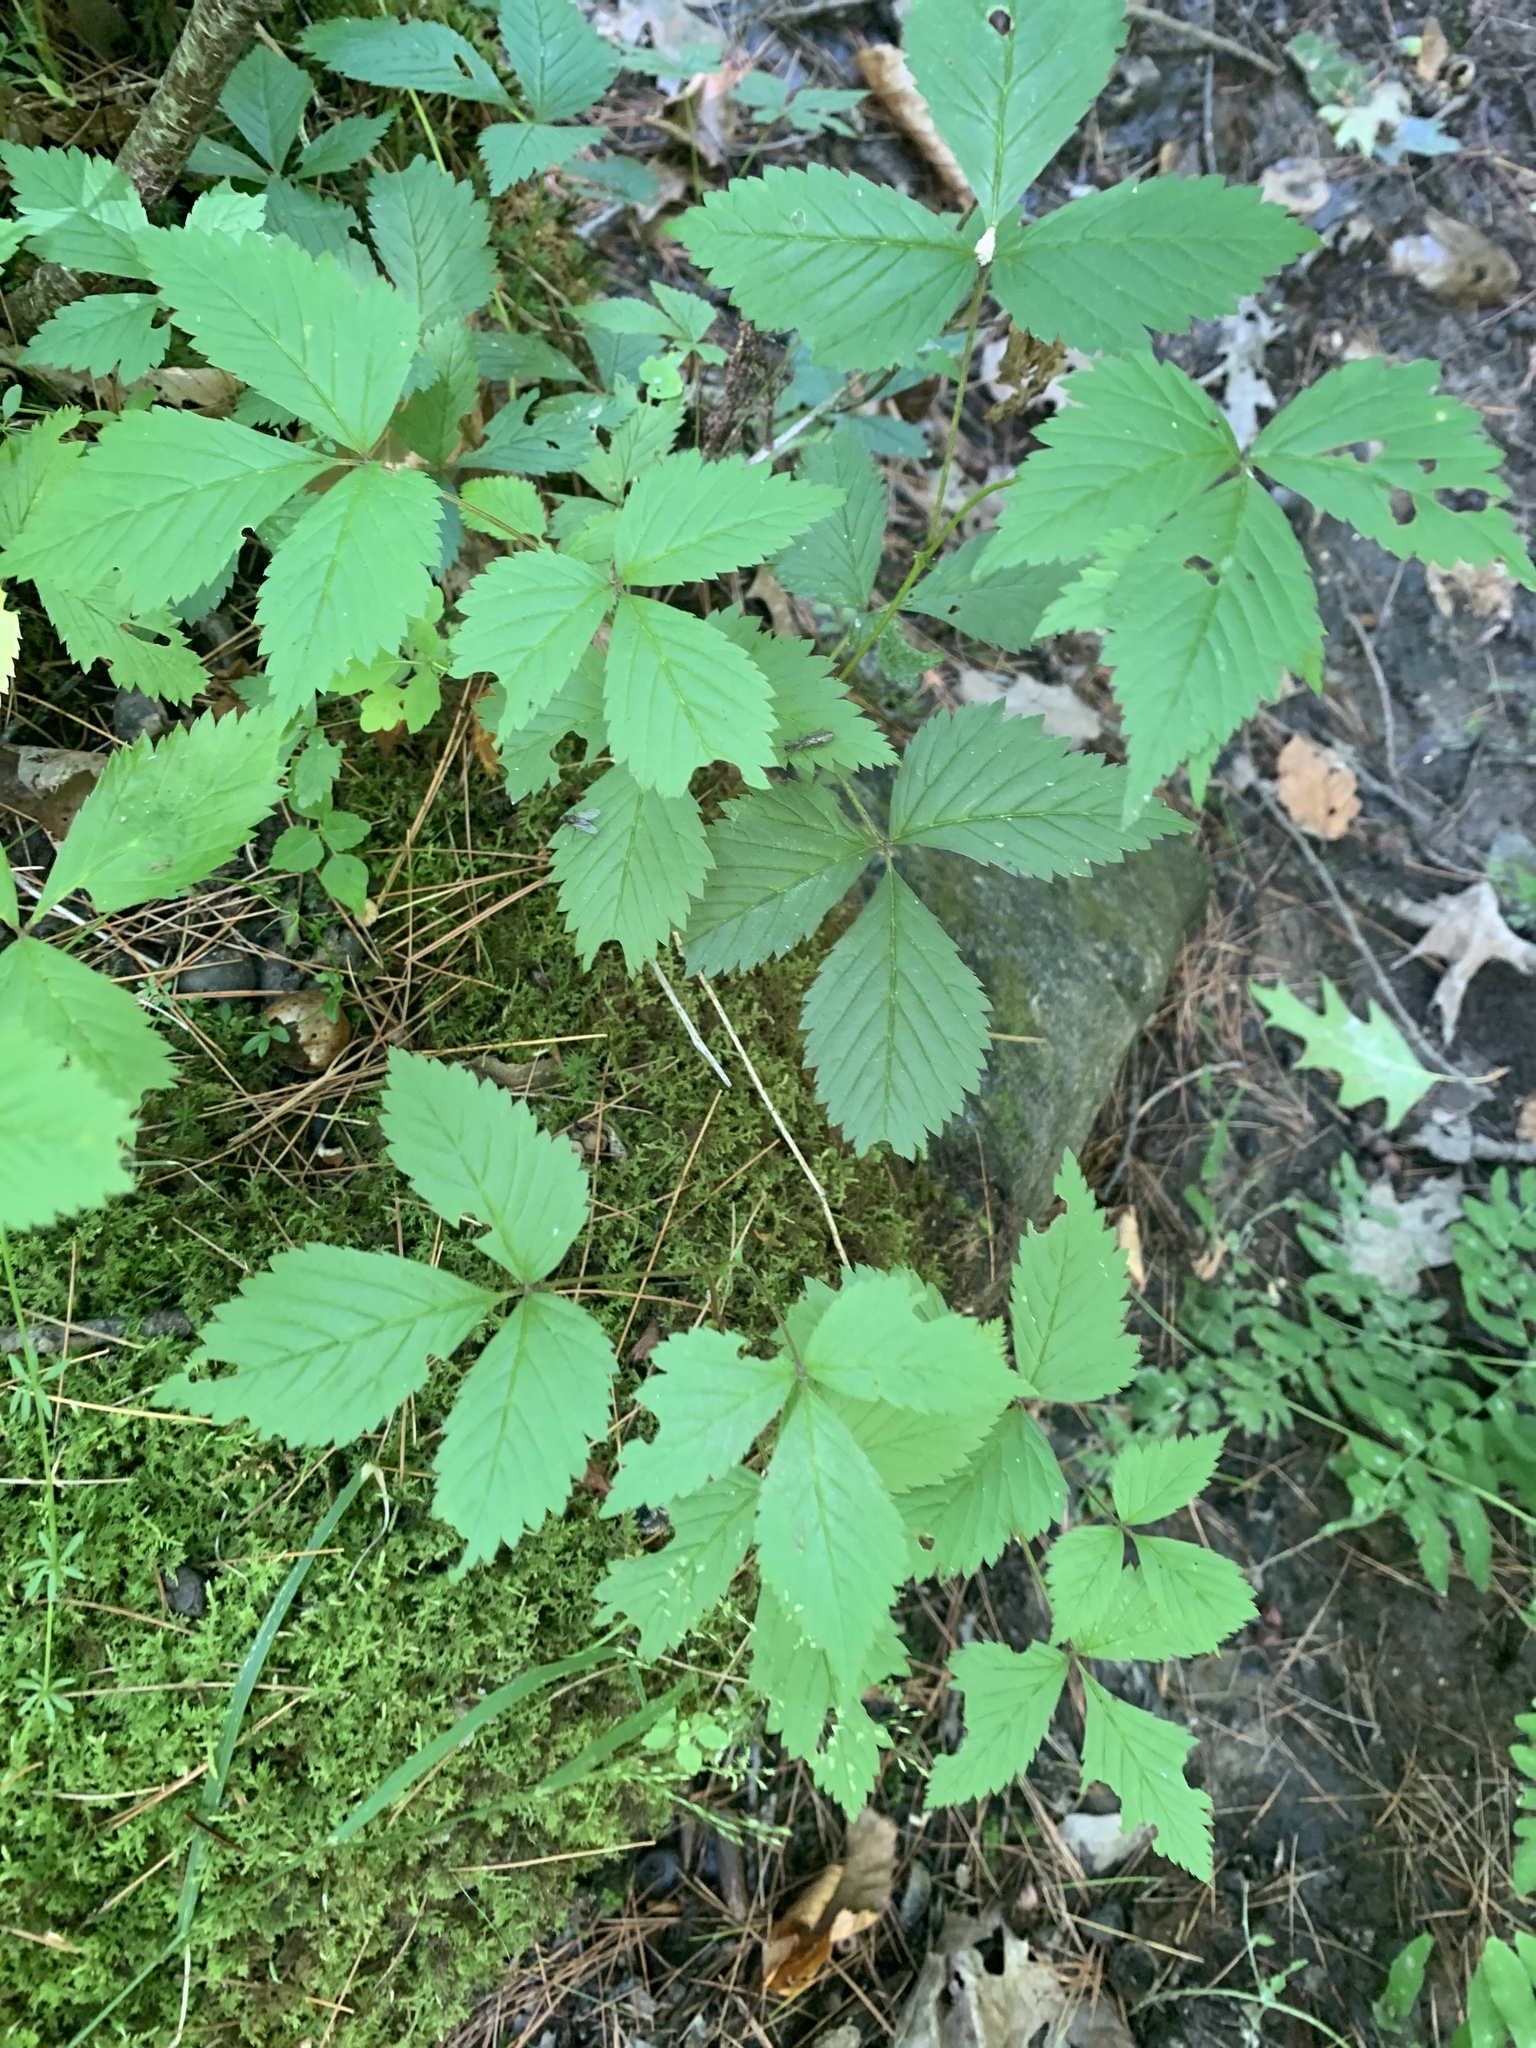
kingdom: Plantae
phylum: Tracheophyta
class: Magnoliopsida
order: Rosales
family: Rosaceae
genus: Rubus
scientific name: Rubus pubescens
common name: Dwarf raspberry
